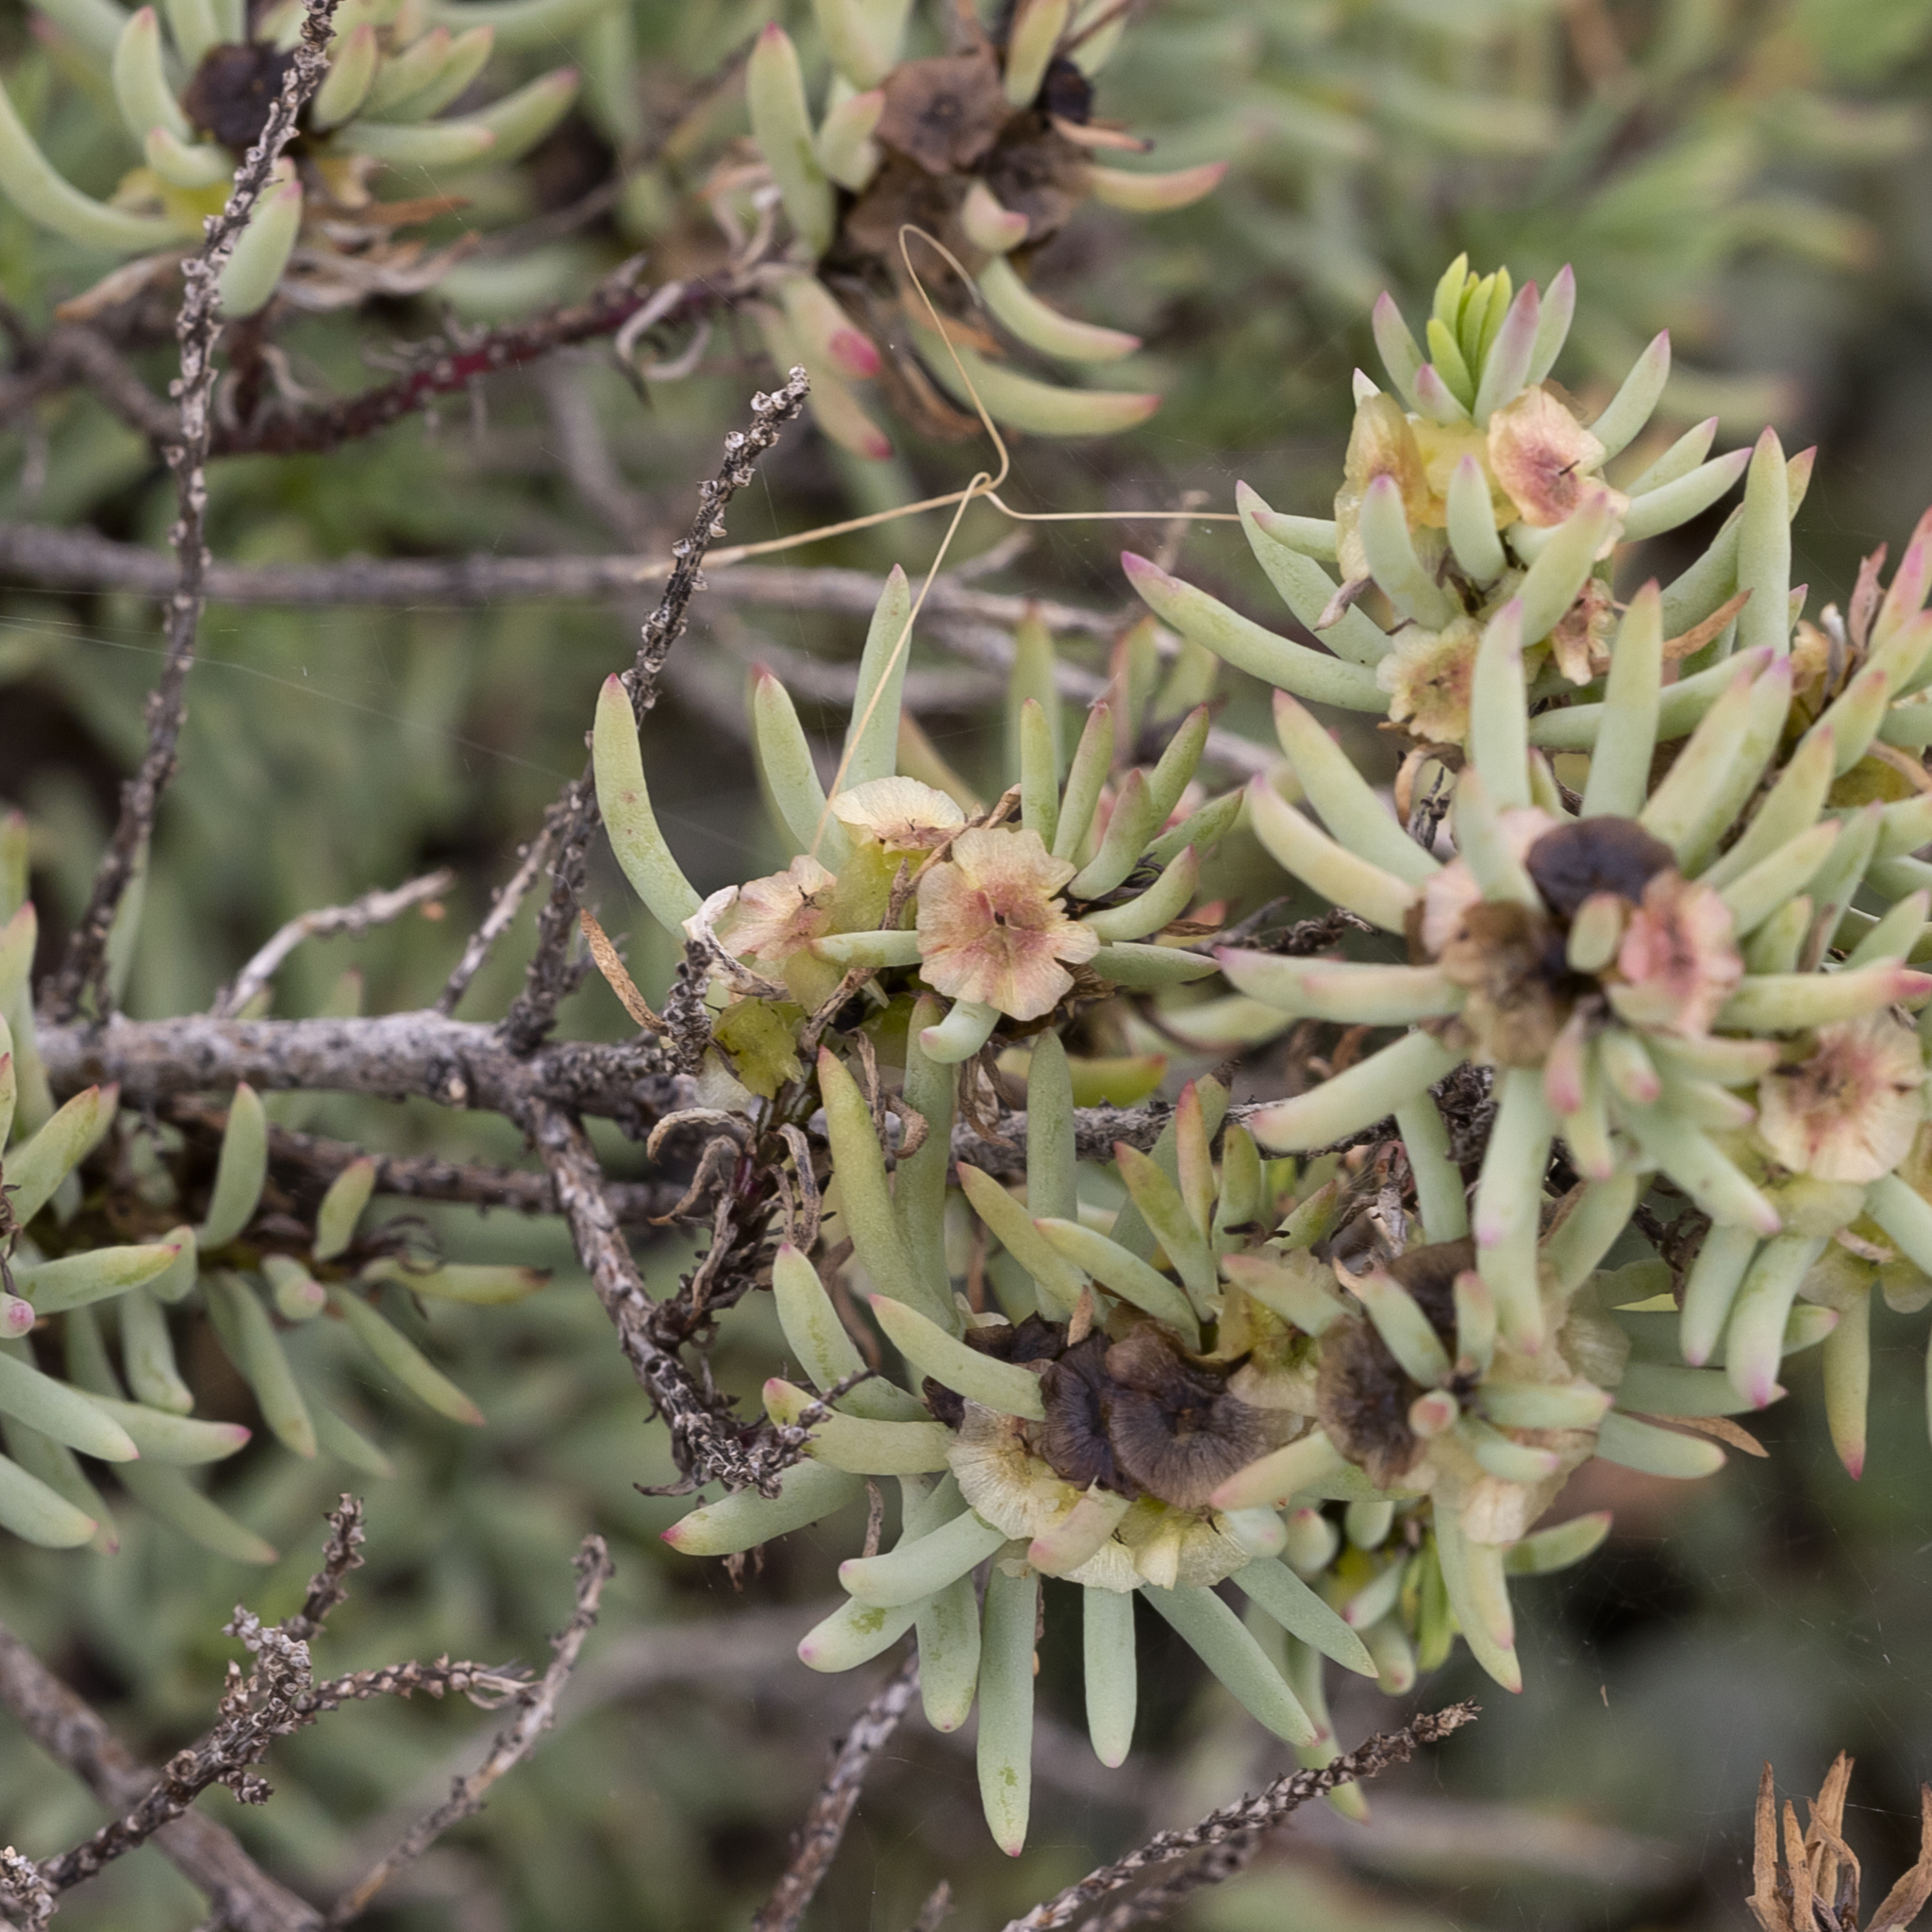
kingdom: Plantae
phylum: Tracheophyta
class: Magnoliopsida
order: Caryophyllales
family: Amaranthaceae
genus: Maireana
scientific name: Maireana triptera
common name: Three-wing bluebush
